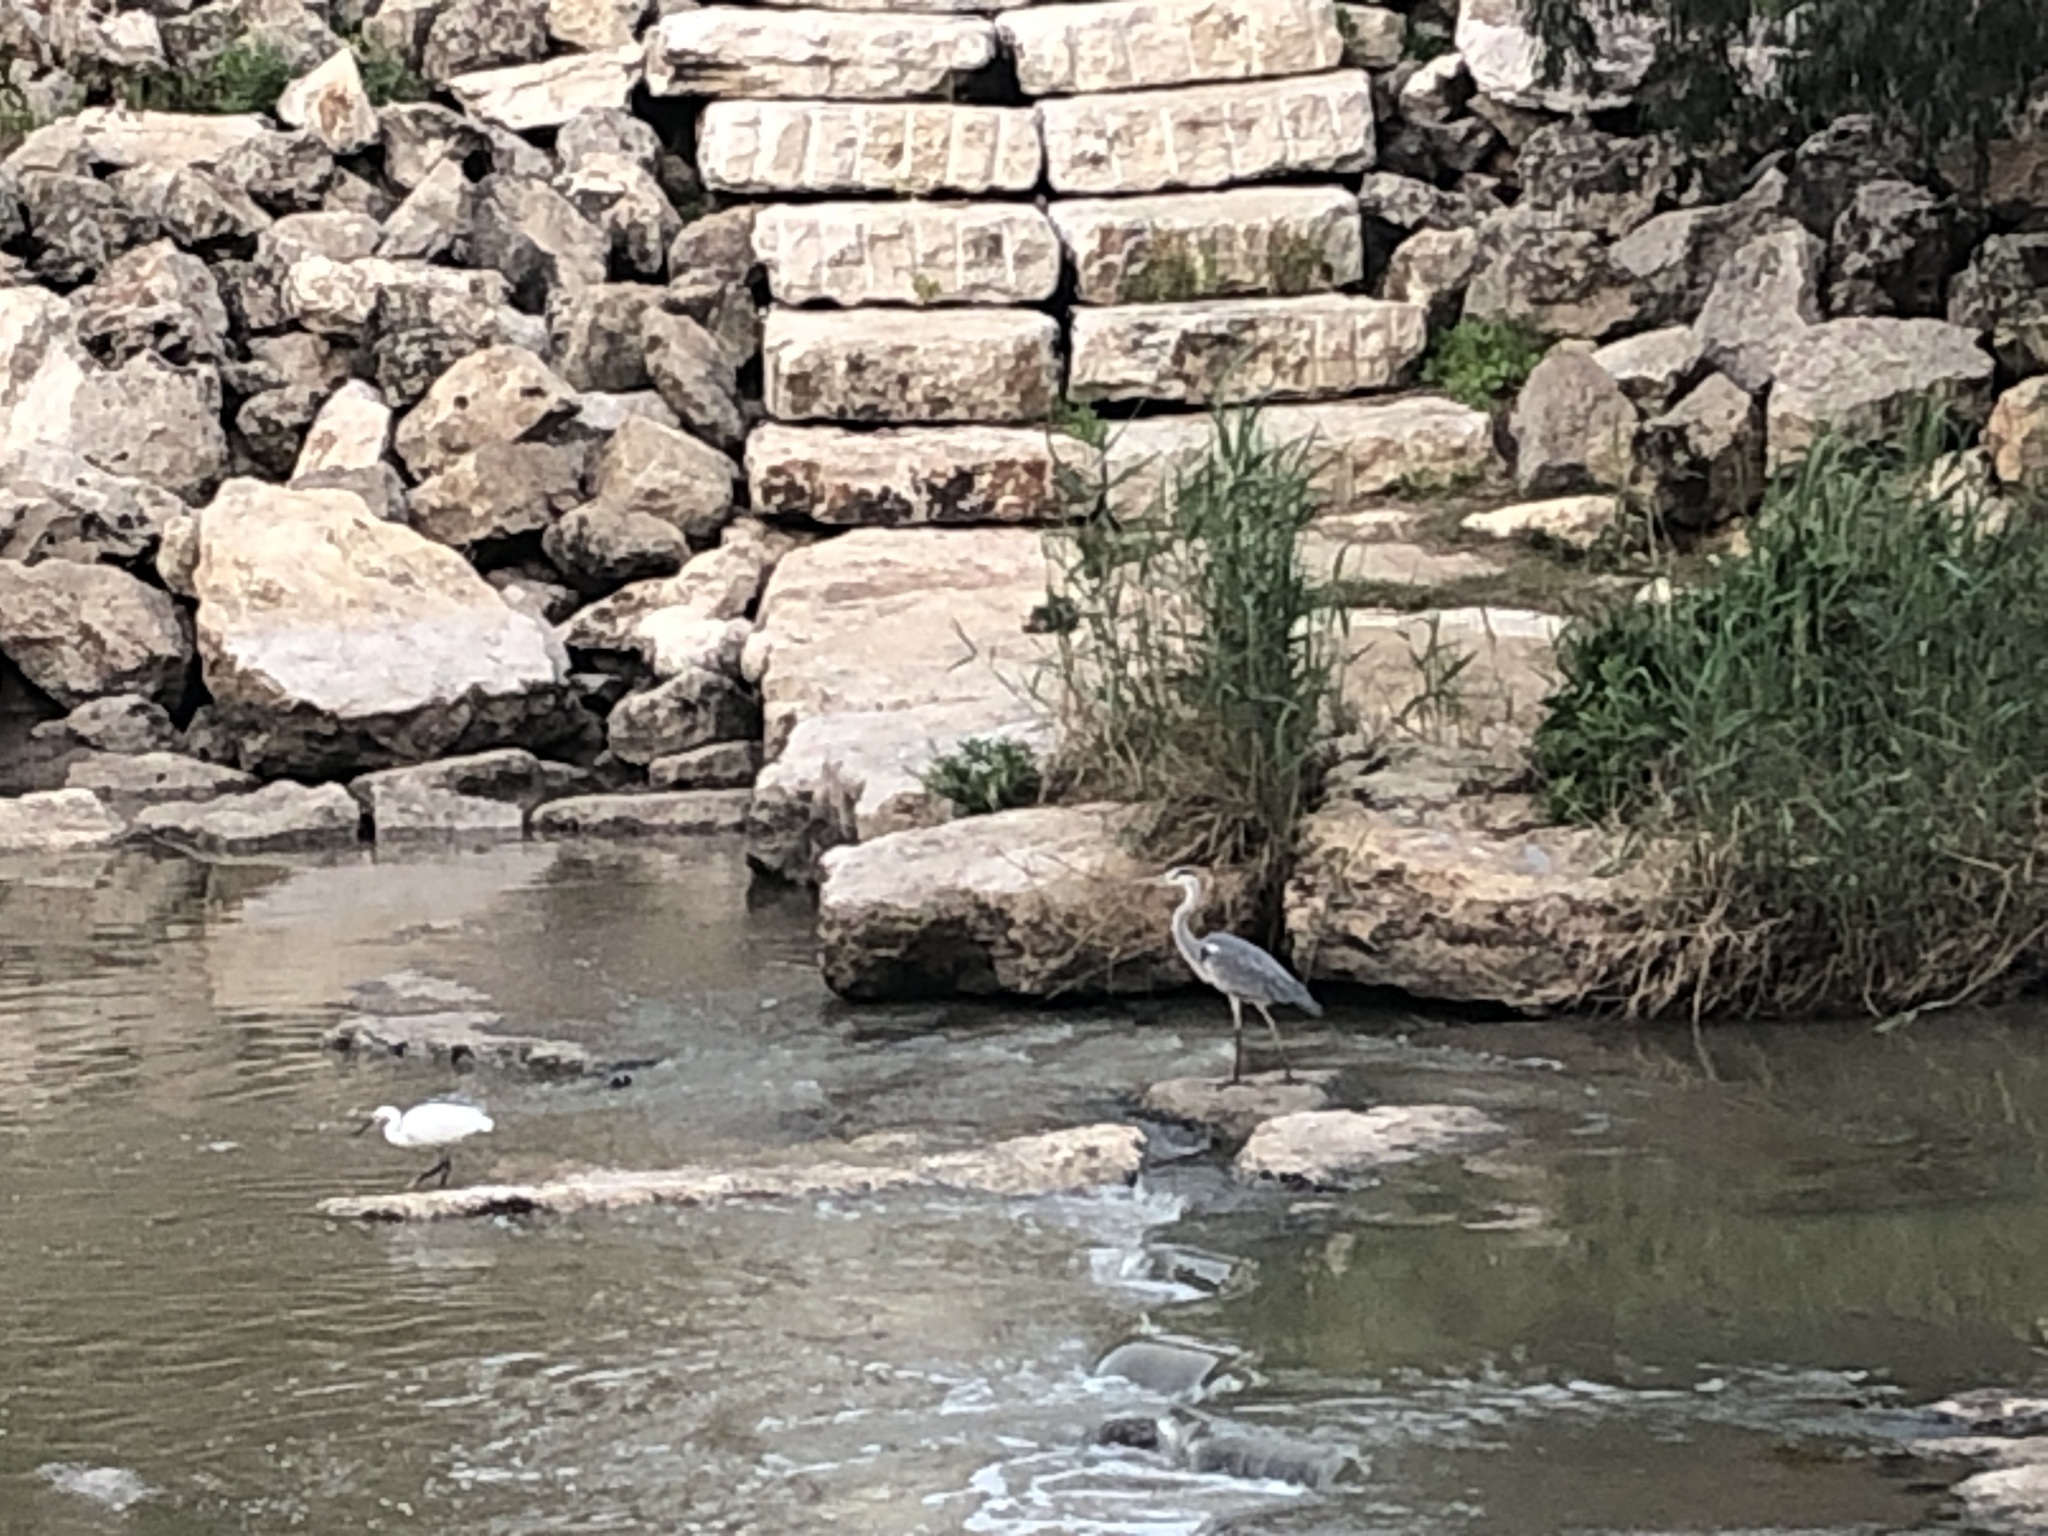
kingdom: Animalia
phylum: Chordata
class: Aves
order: Pelecaniformes
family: Ardeidae
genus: Ardea
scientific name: Ardea cinerea
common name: Grey heron
